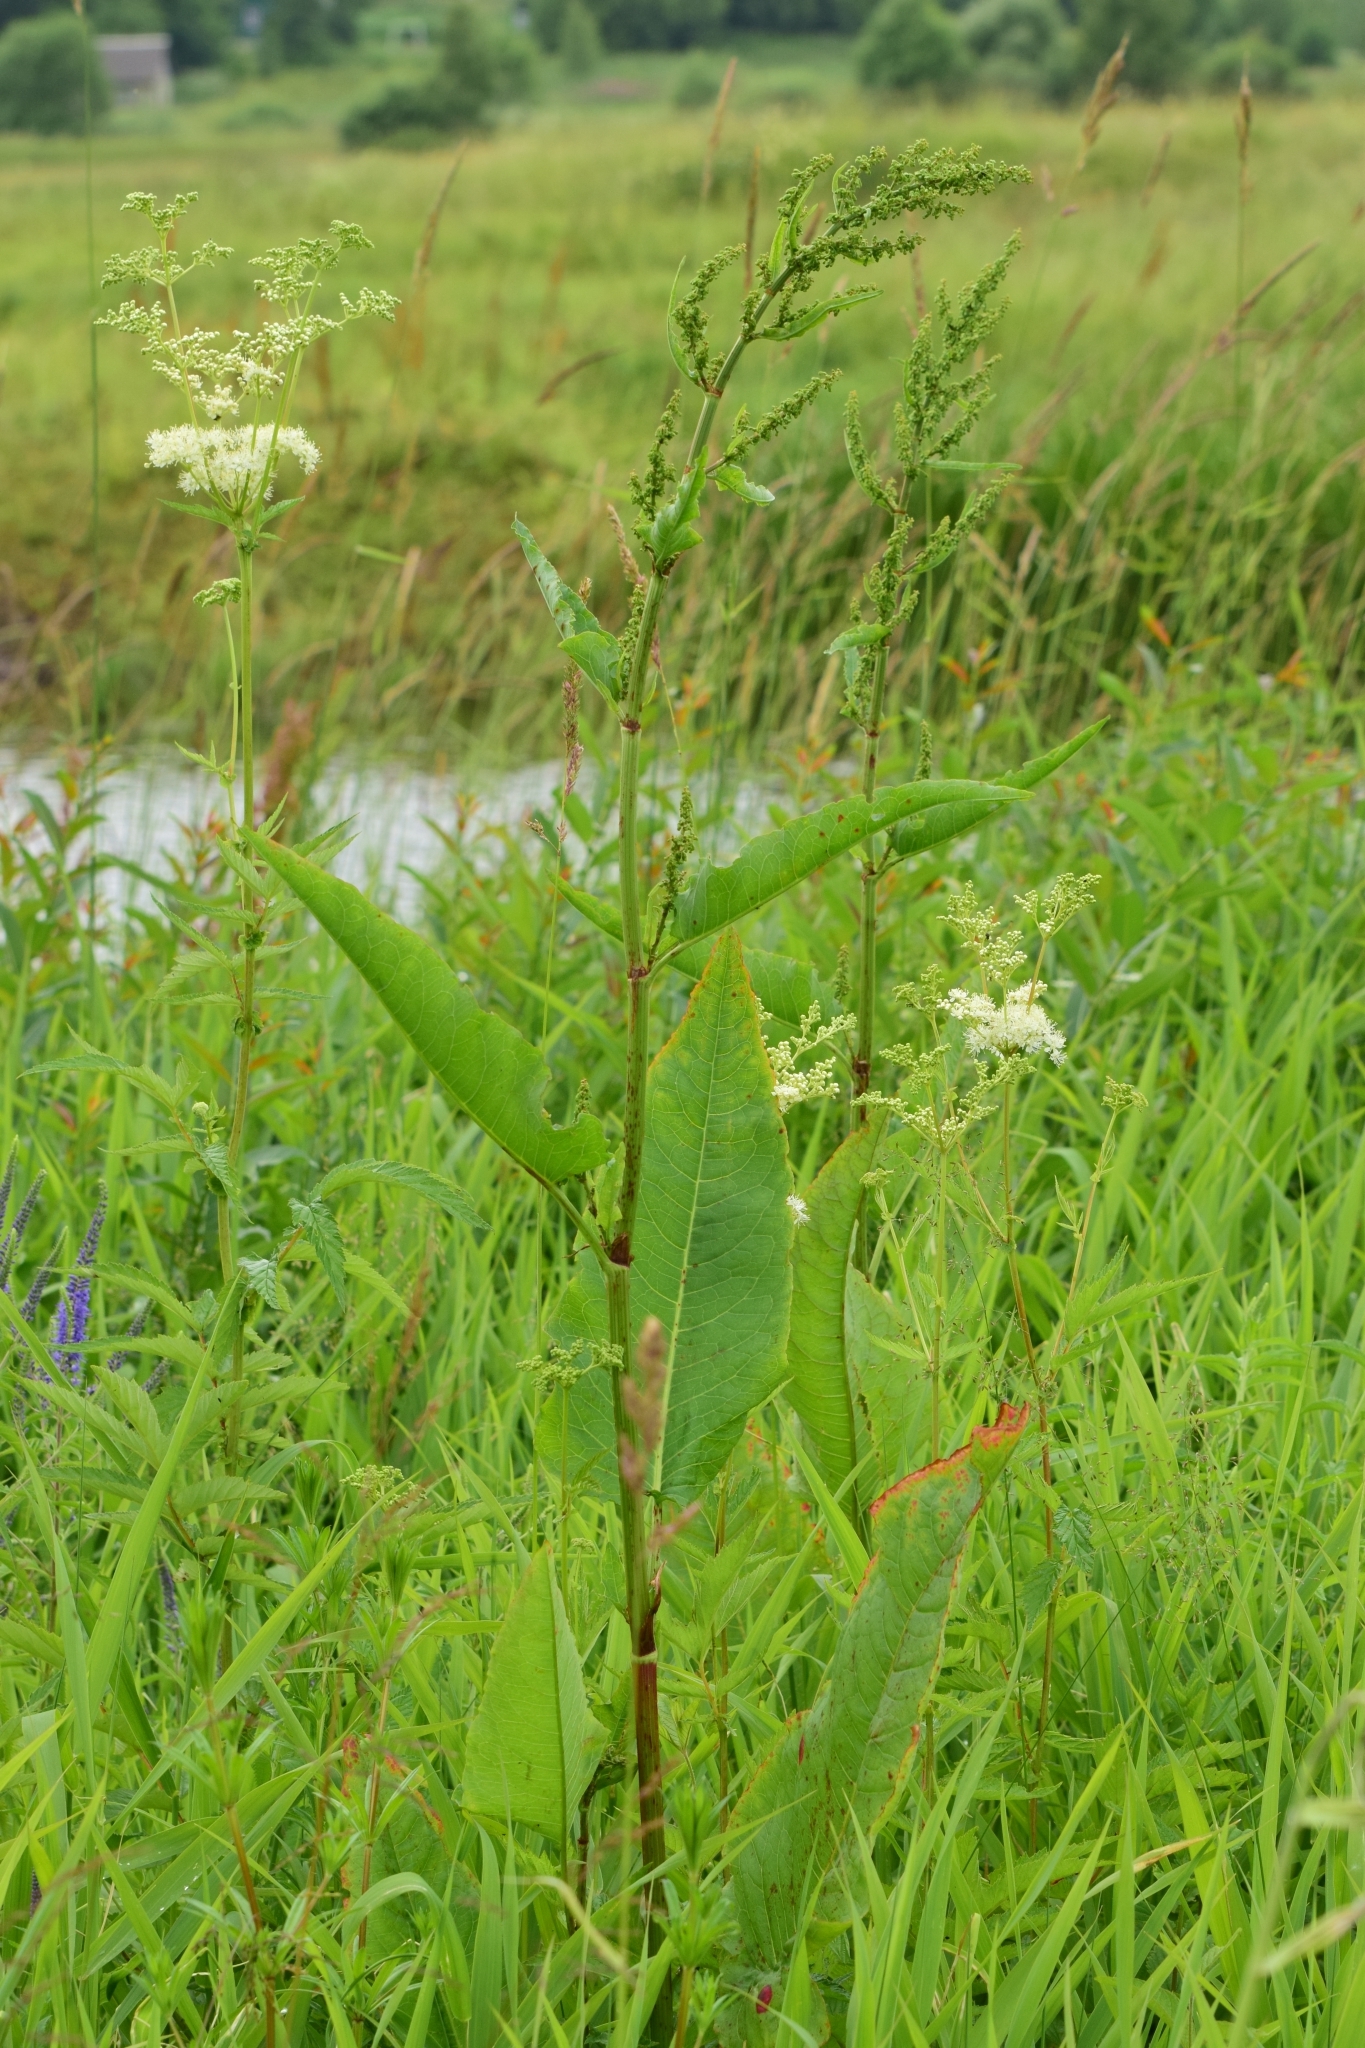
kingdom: Plantae
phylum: Tracheophyta
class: Magnoliopsida
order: Caryophyllales
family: Polygonaceae
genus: Rumex
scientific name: Rumex aquaticus
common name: Scottish dock
